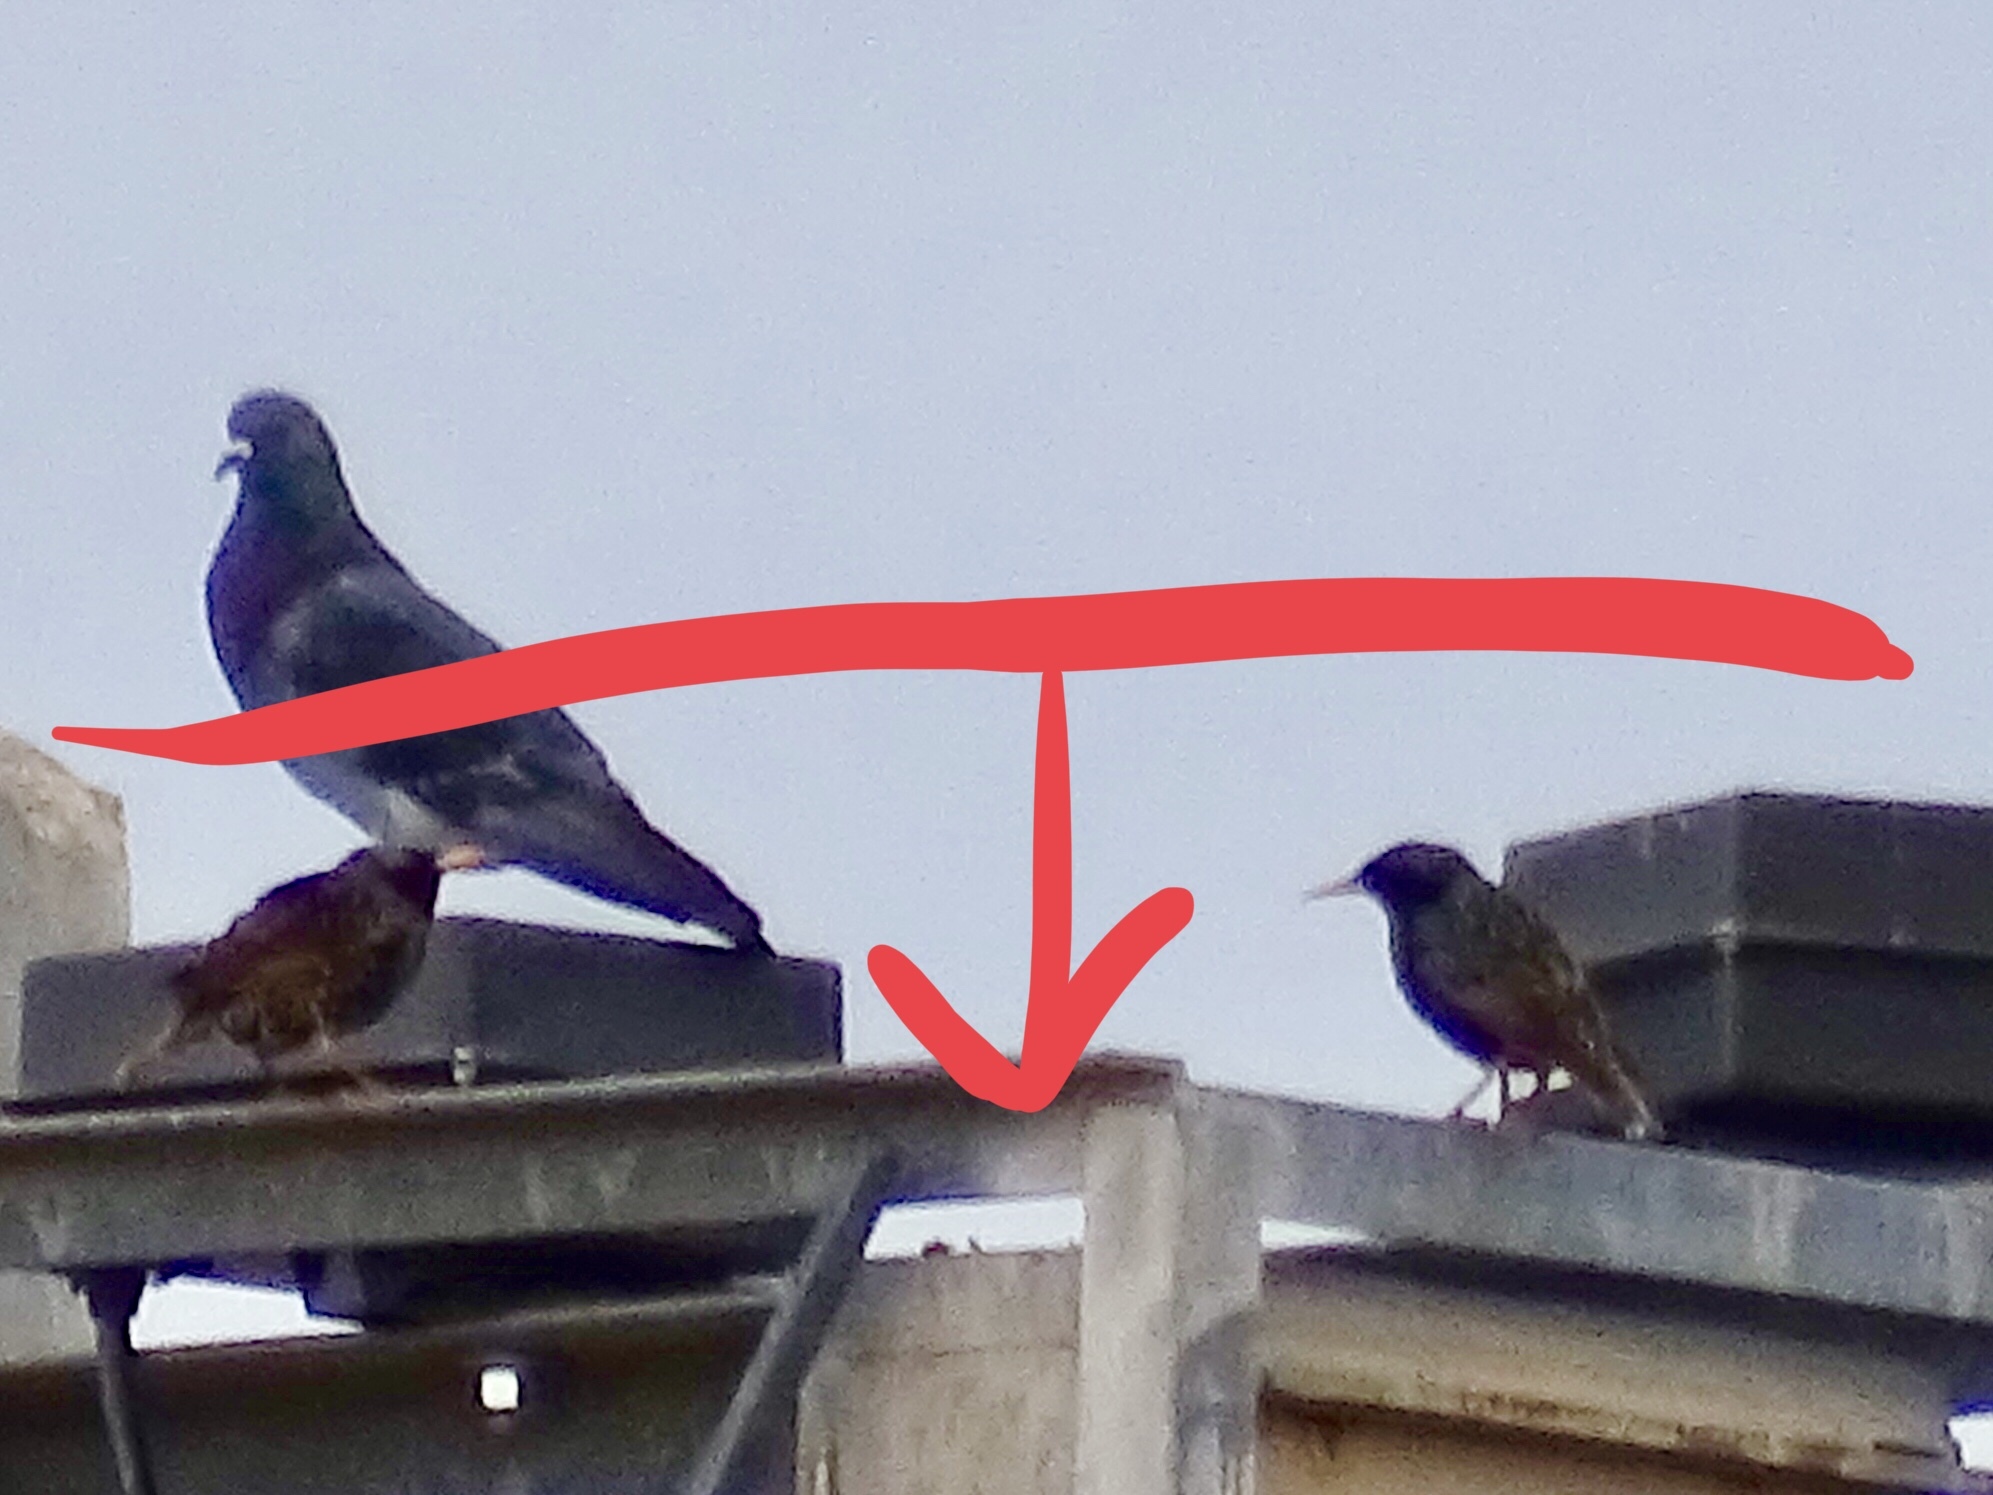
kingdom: Animalia
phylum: Chordata
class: Aves
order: Passeriformes
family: Sturnidae
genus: Sturnus
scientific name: Sturnus vulgaris
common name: Common starling
